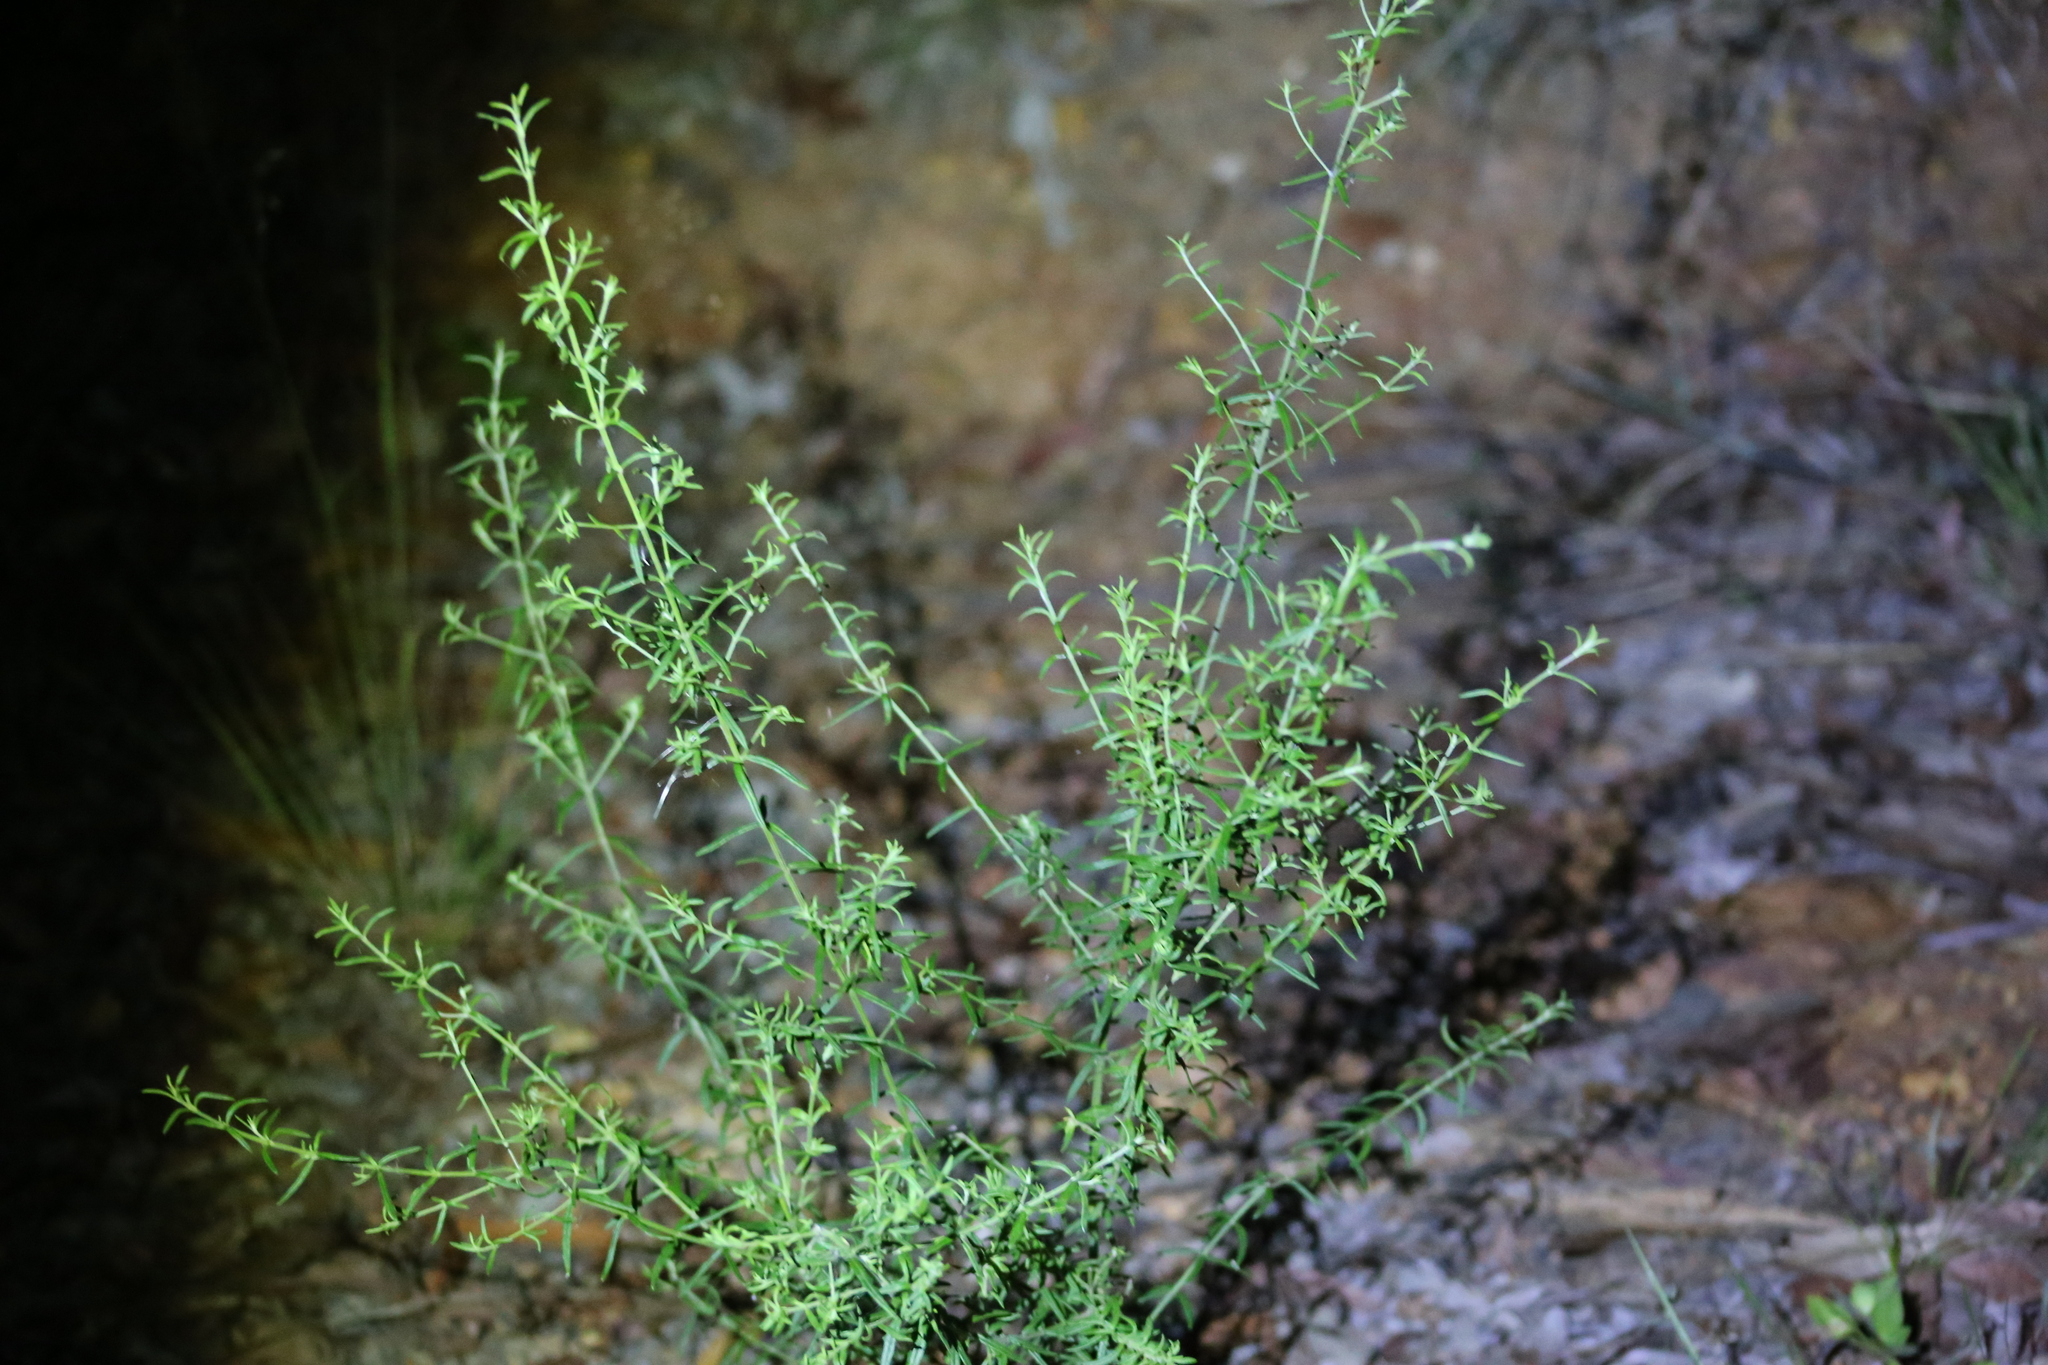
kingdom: Plantae
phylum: Tracheophyta
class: Magnoliopsida
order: Lamiales
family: Lamiaceae
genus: Westringia
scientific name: Westringia eremicola
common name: Slender western-rosemary
